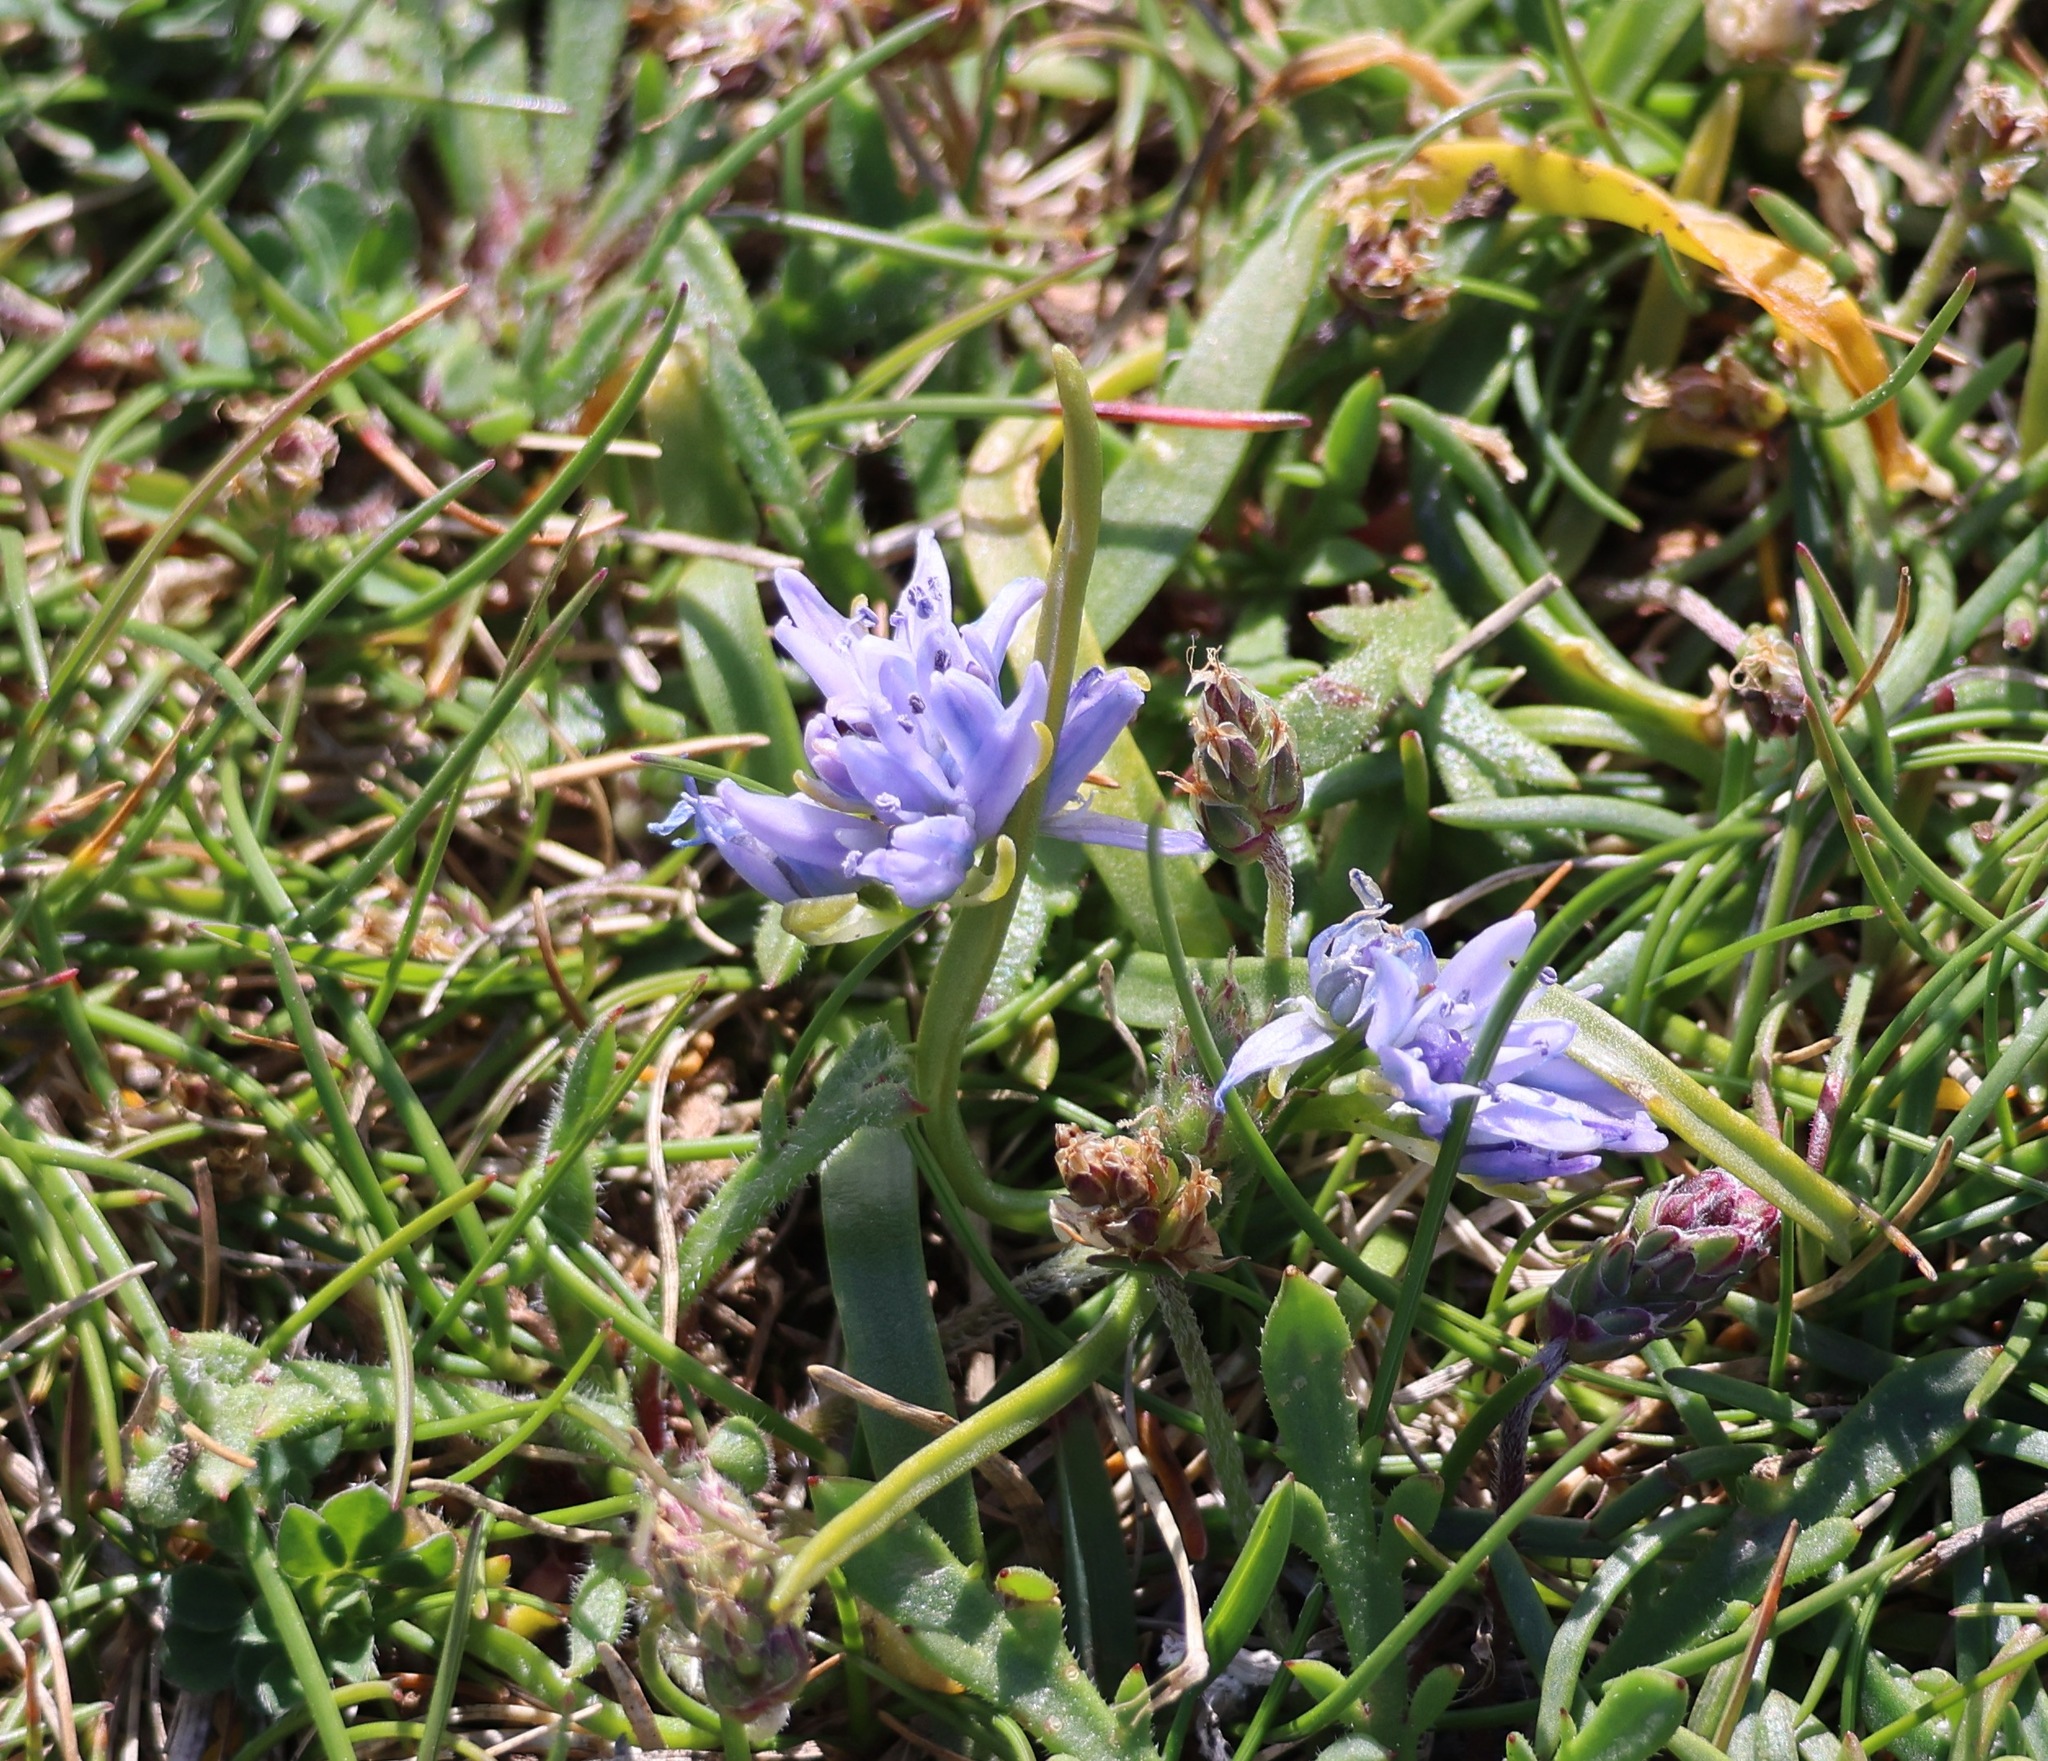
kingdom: Plantae
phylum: Tracheophyta
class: Liliopsida
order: Asparagales
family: Asparagaceae
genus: Scilla
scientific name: Scilla verna
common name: Spring squill
